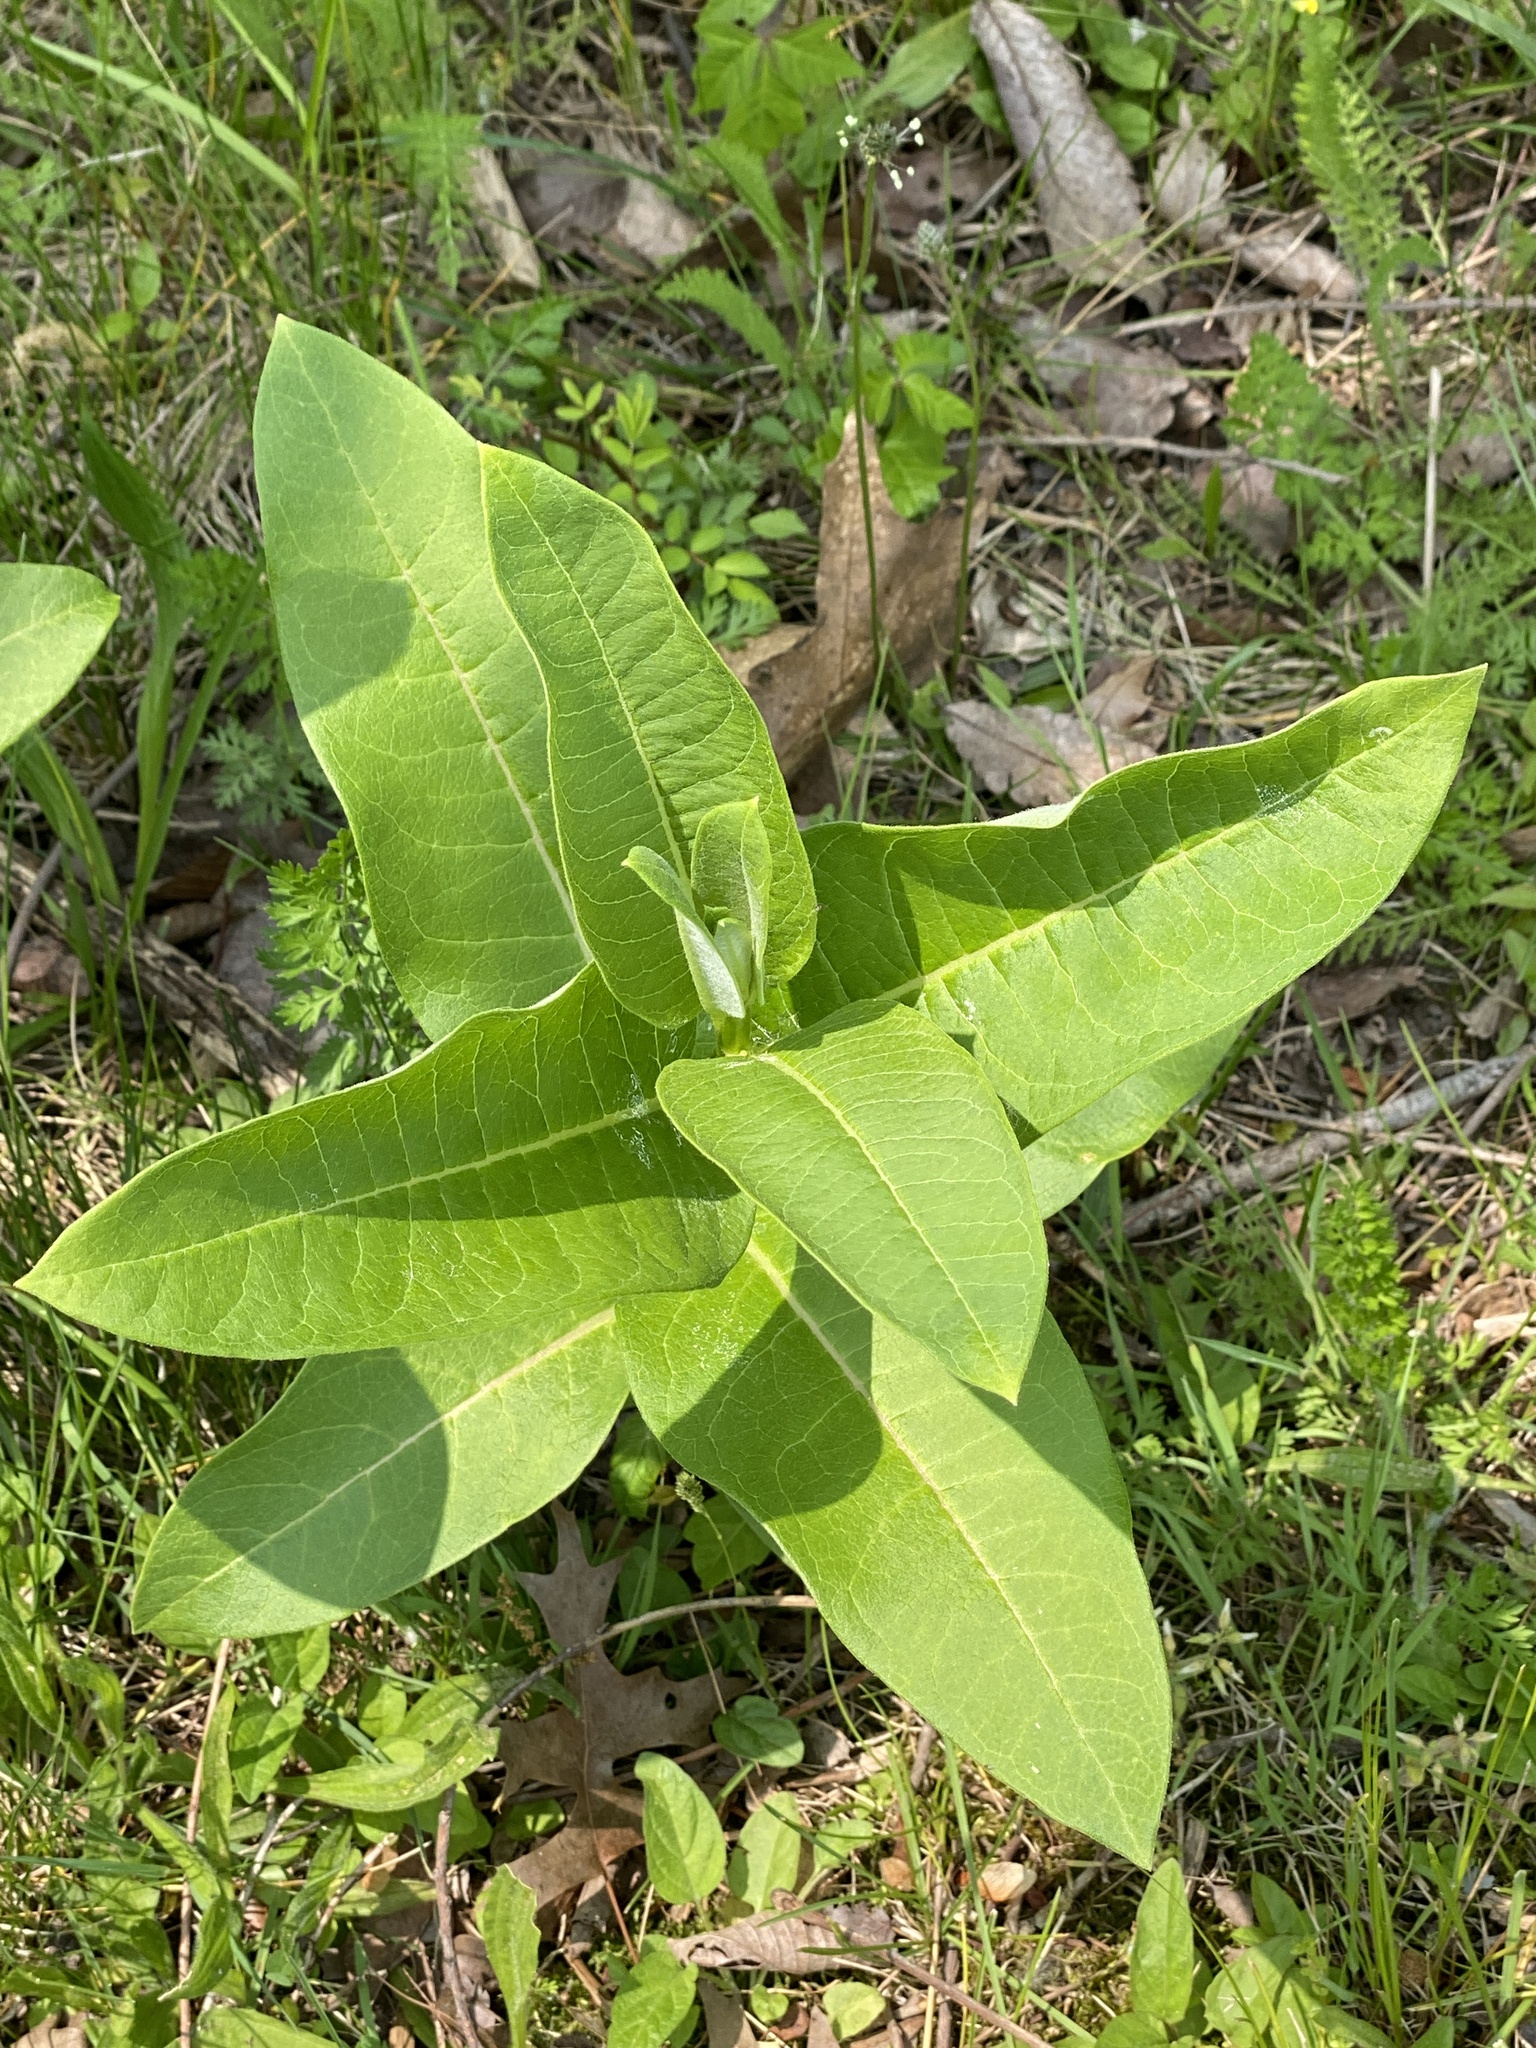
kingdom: Plantae
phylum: Tracheophyta
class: Magnoliopsida
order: Gentianales
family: Apocynaceae
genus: Asclepias
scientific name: Asclepias syriaca
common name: Common milkweed
